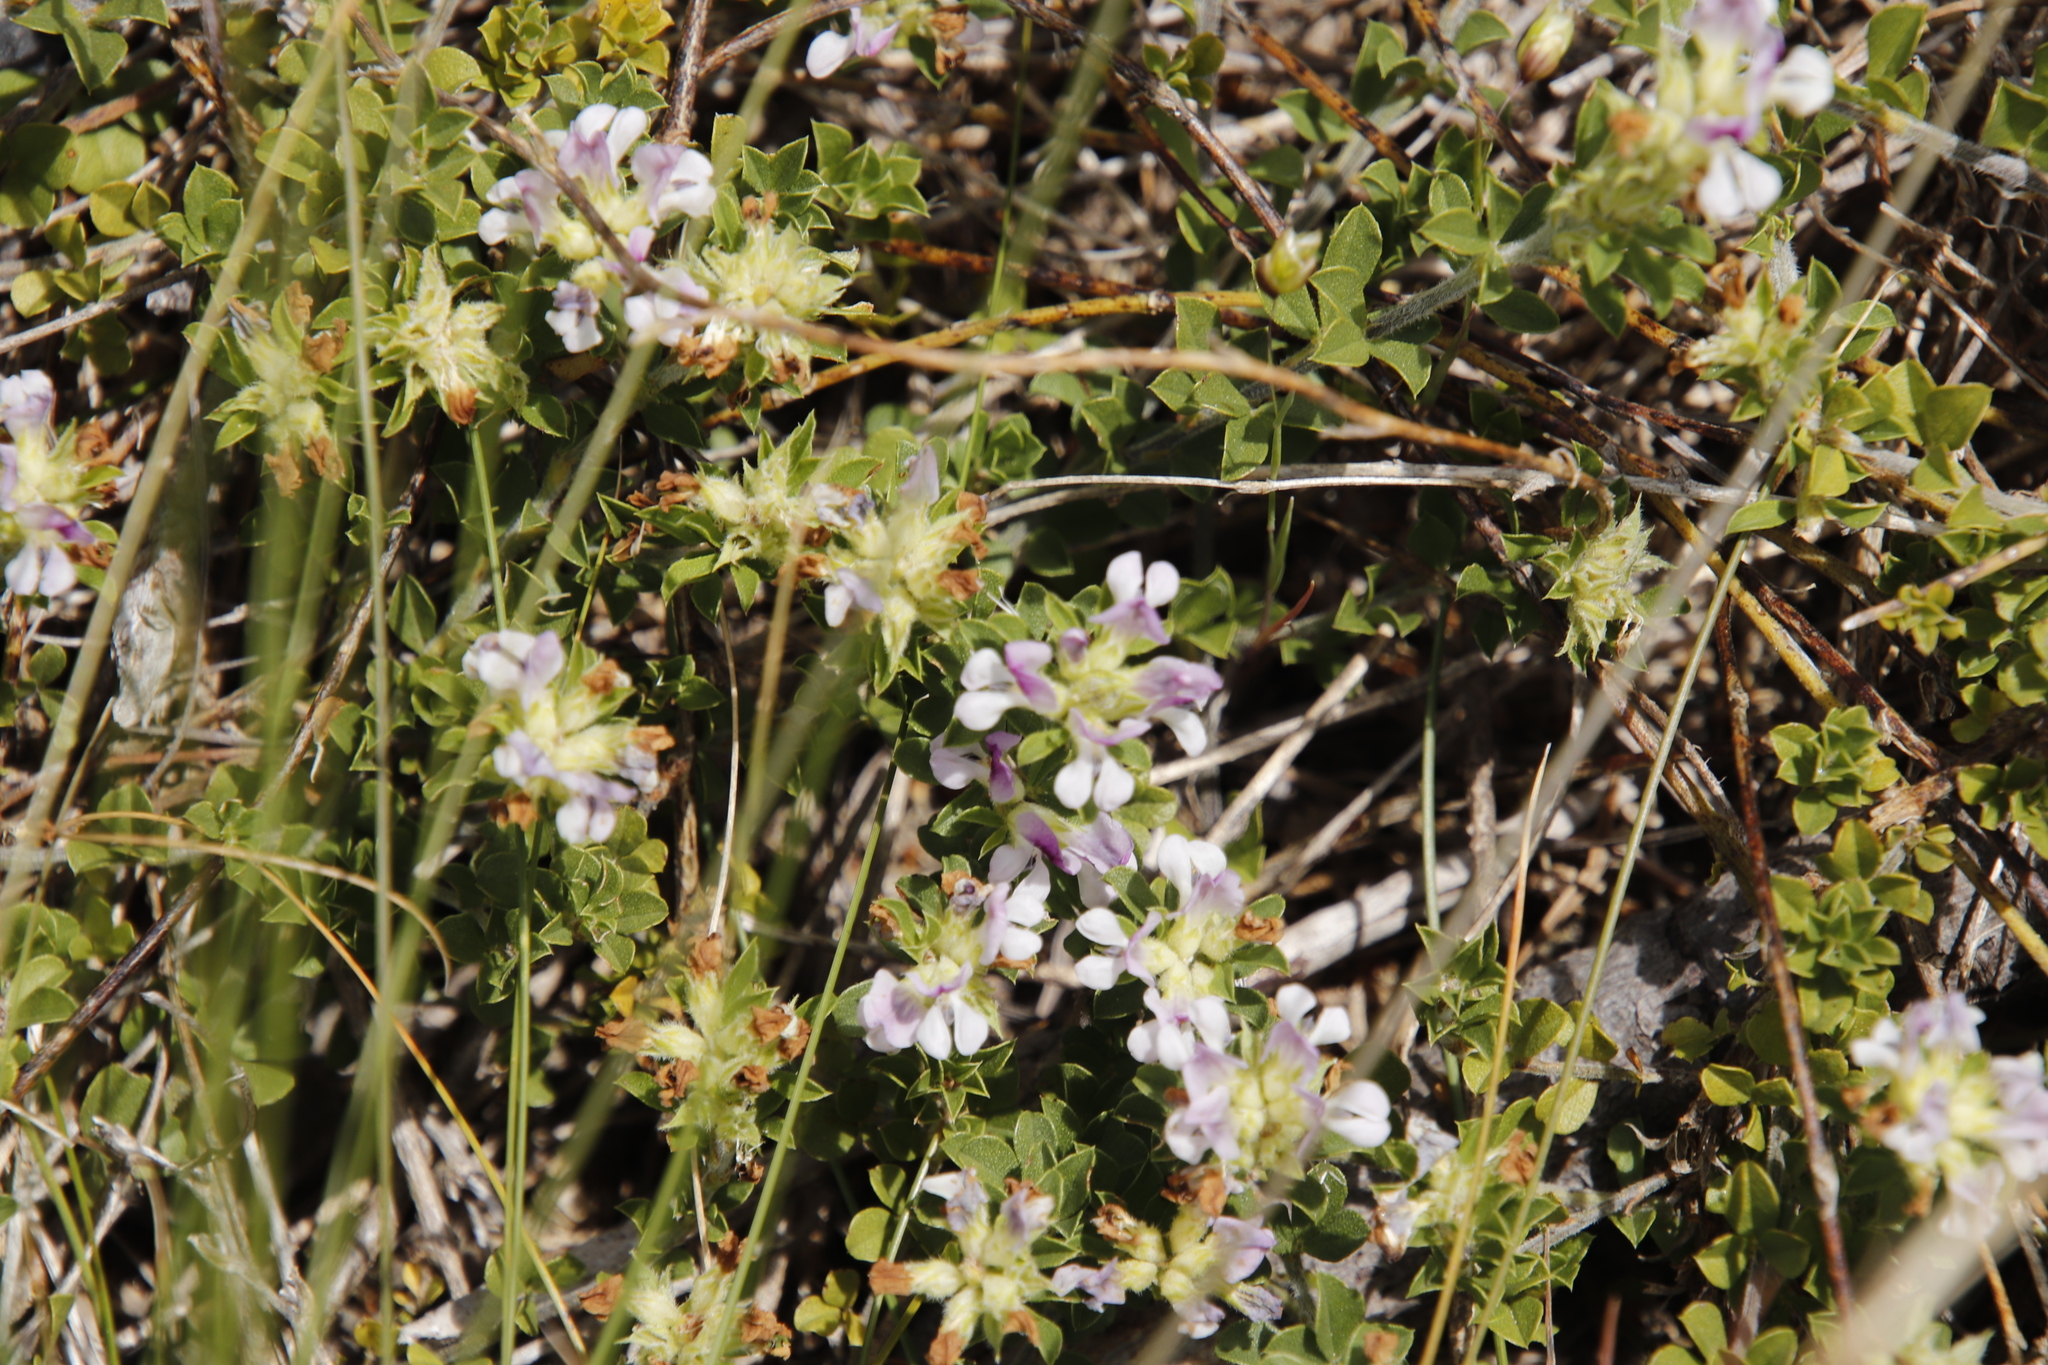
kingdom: Plantae
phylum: Tracheophyta
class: Magnoliopsida
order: Fabales
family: Fabaceae
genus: Psoralea
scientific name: Psoralea
